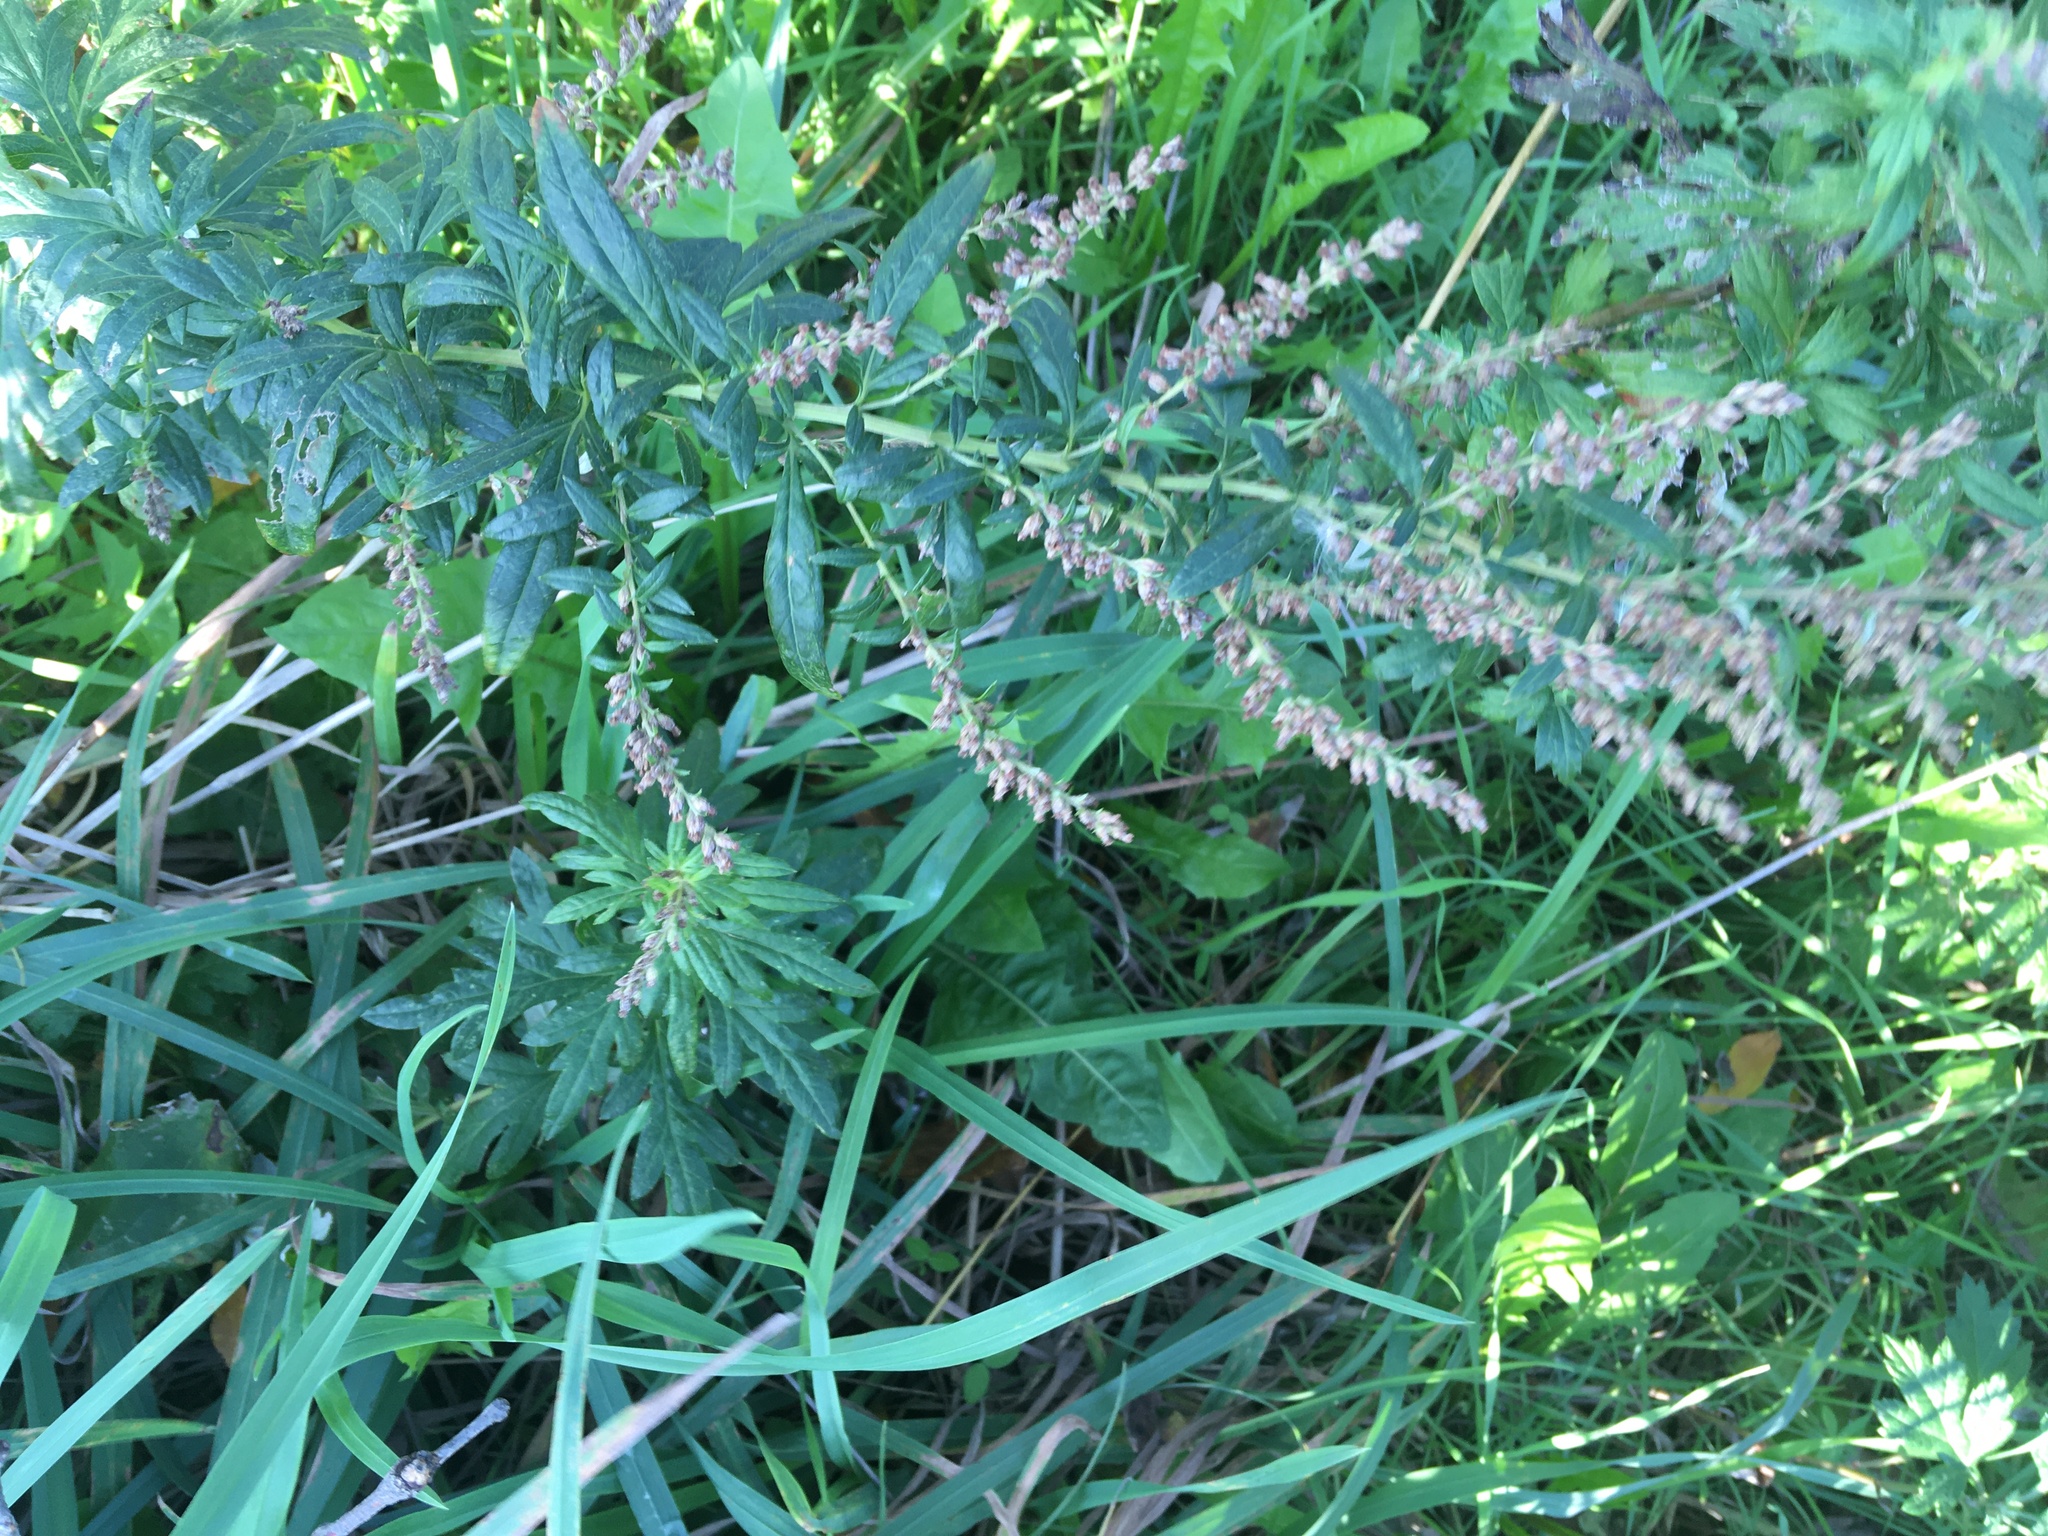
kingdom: Plantae
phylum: Tracheophyta
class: Magnoliopsida
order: Asterales
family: Asteraceae
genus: Artemisia
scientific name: Artemisia vulgaris
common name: Mugwort
